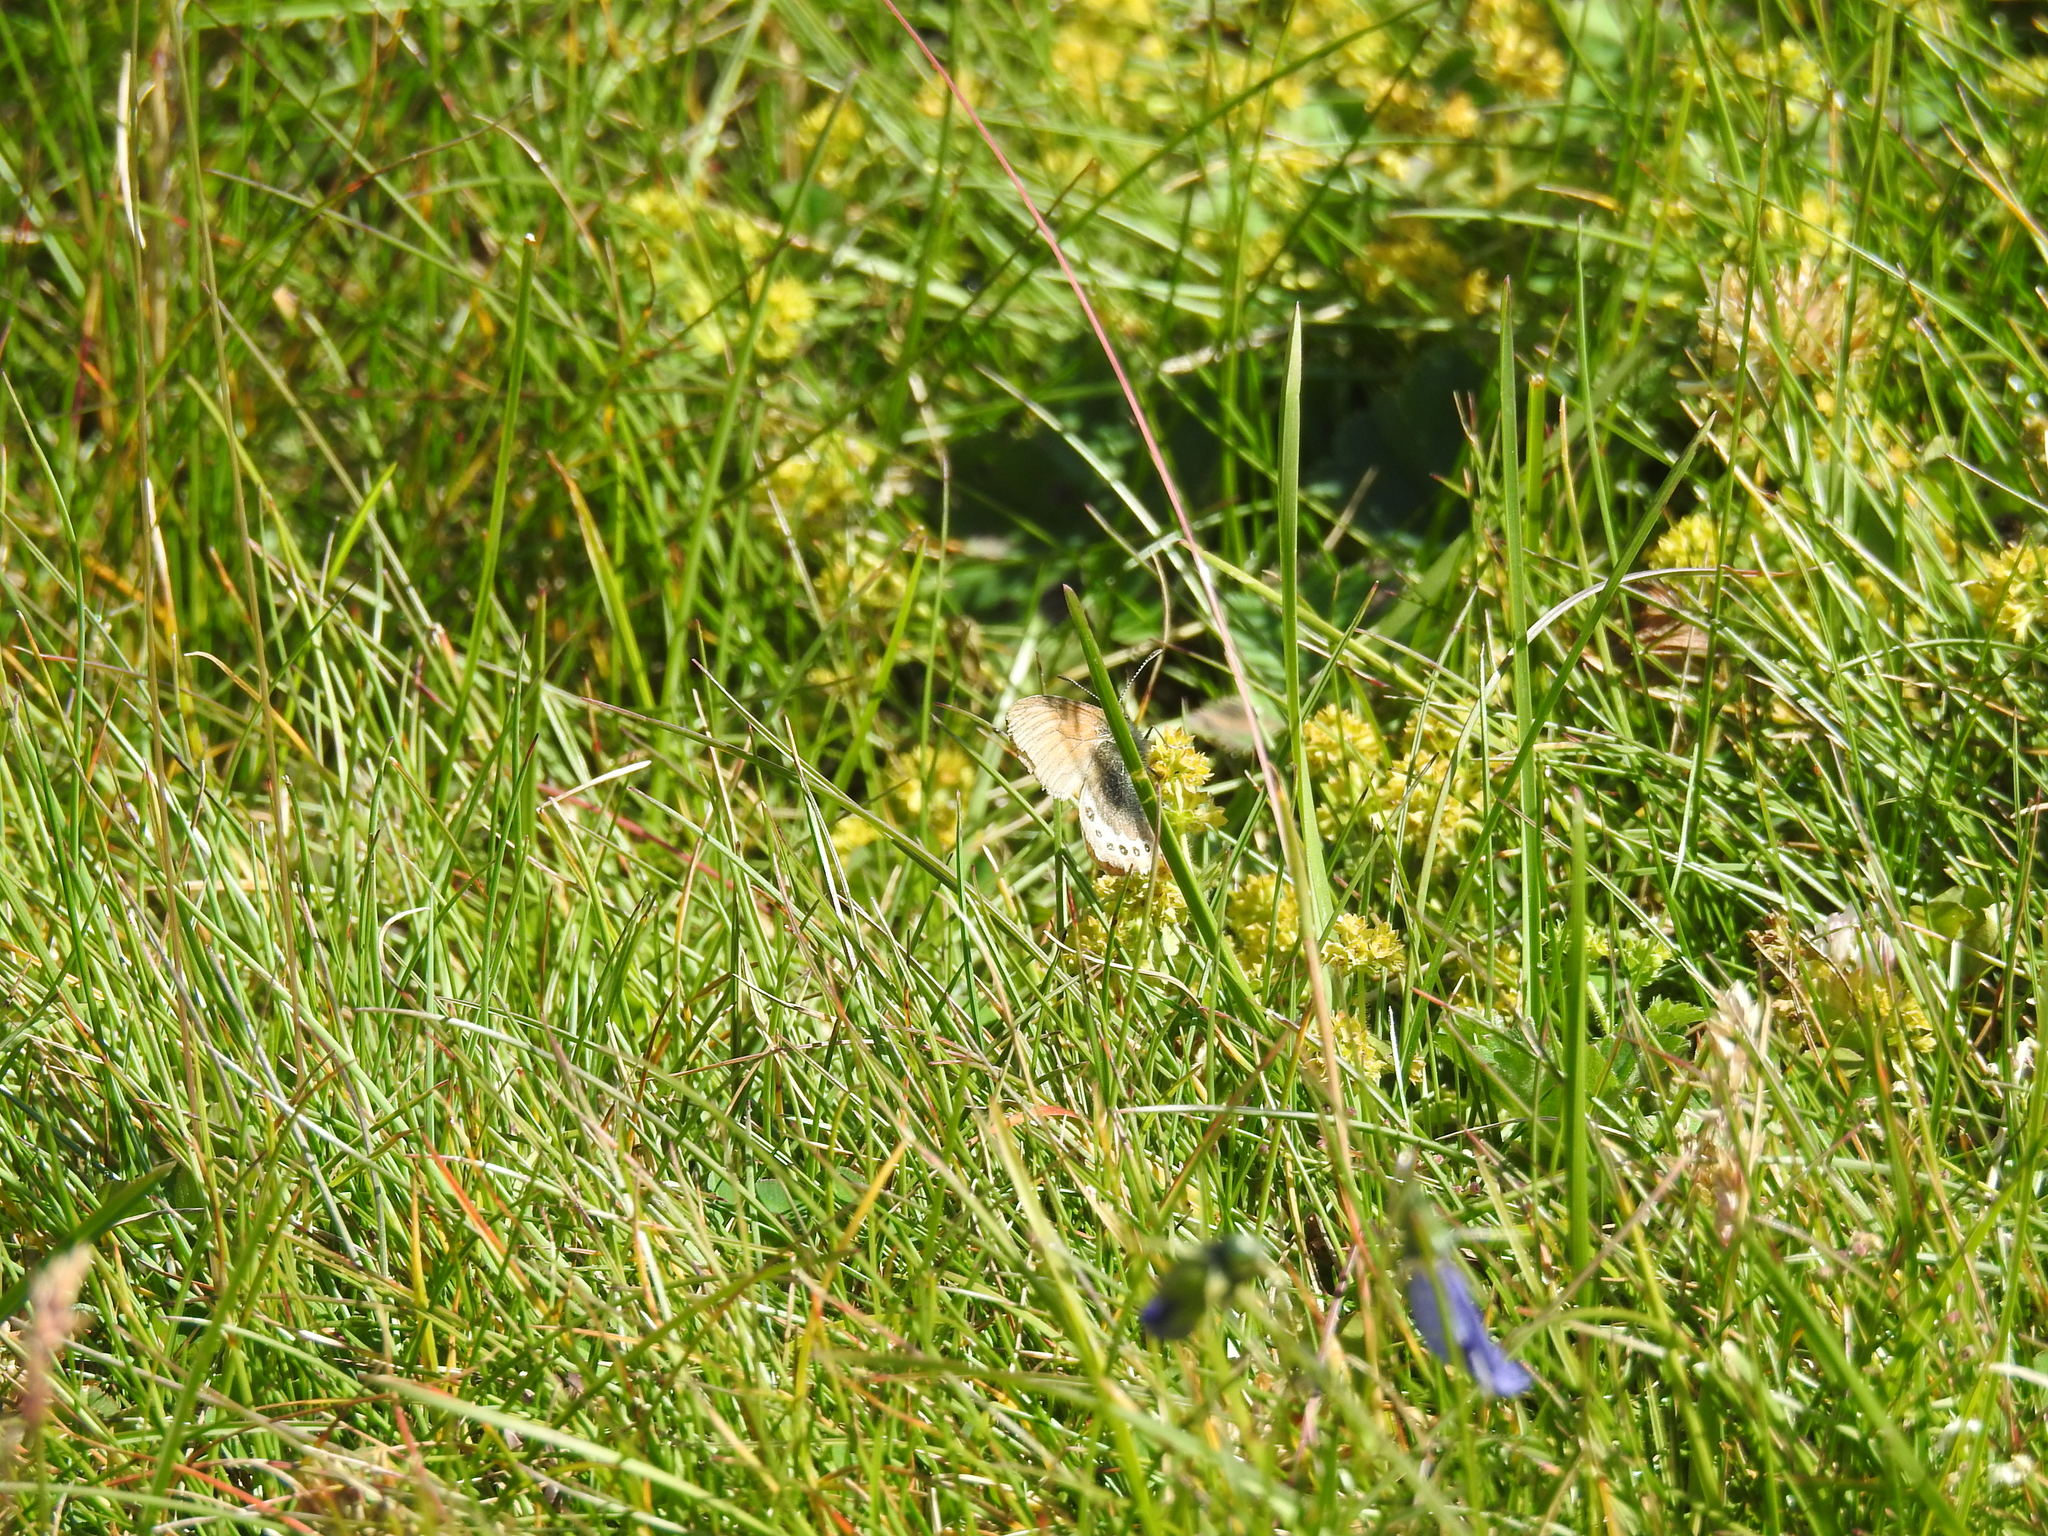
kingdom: Animalia
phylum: Arthropoda
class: Insecta
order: Lepidoptera
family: Nymphalidae
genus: Coenonympha
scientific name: Coenonympha
